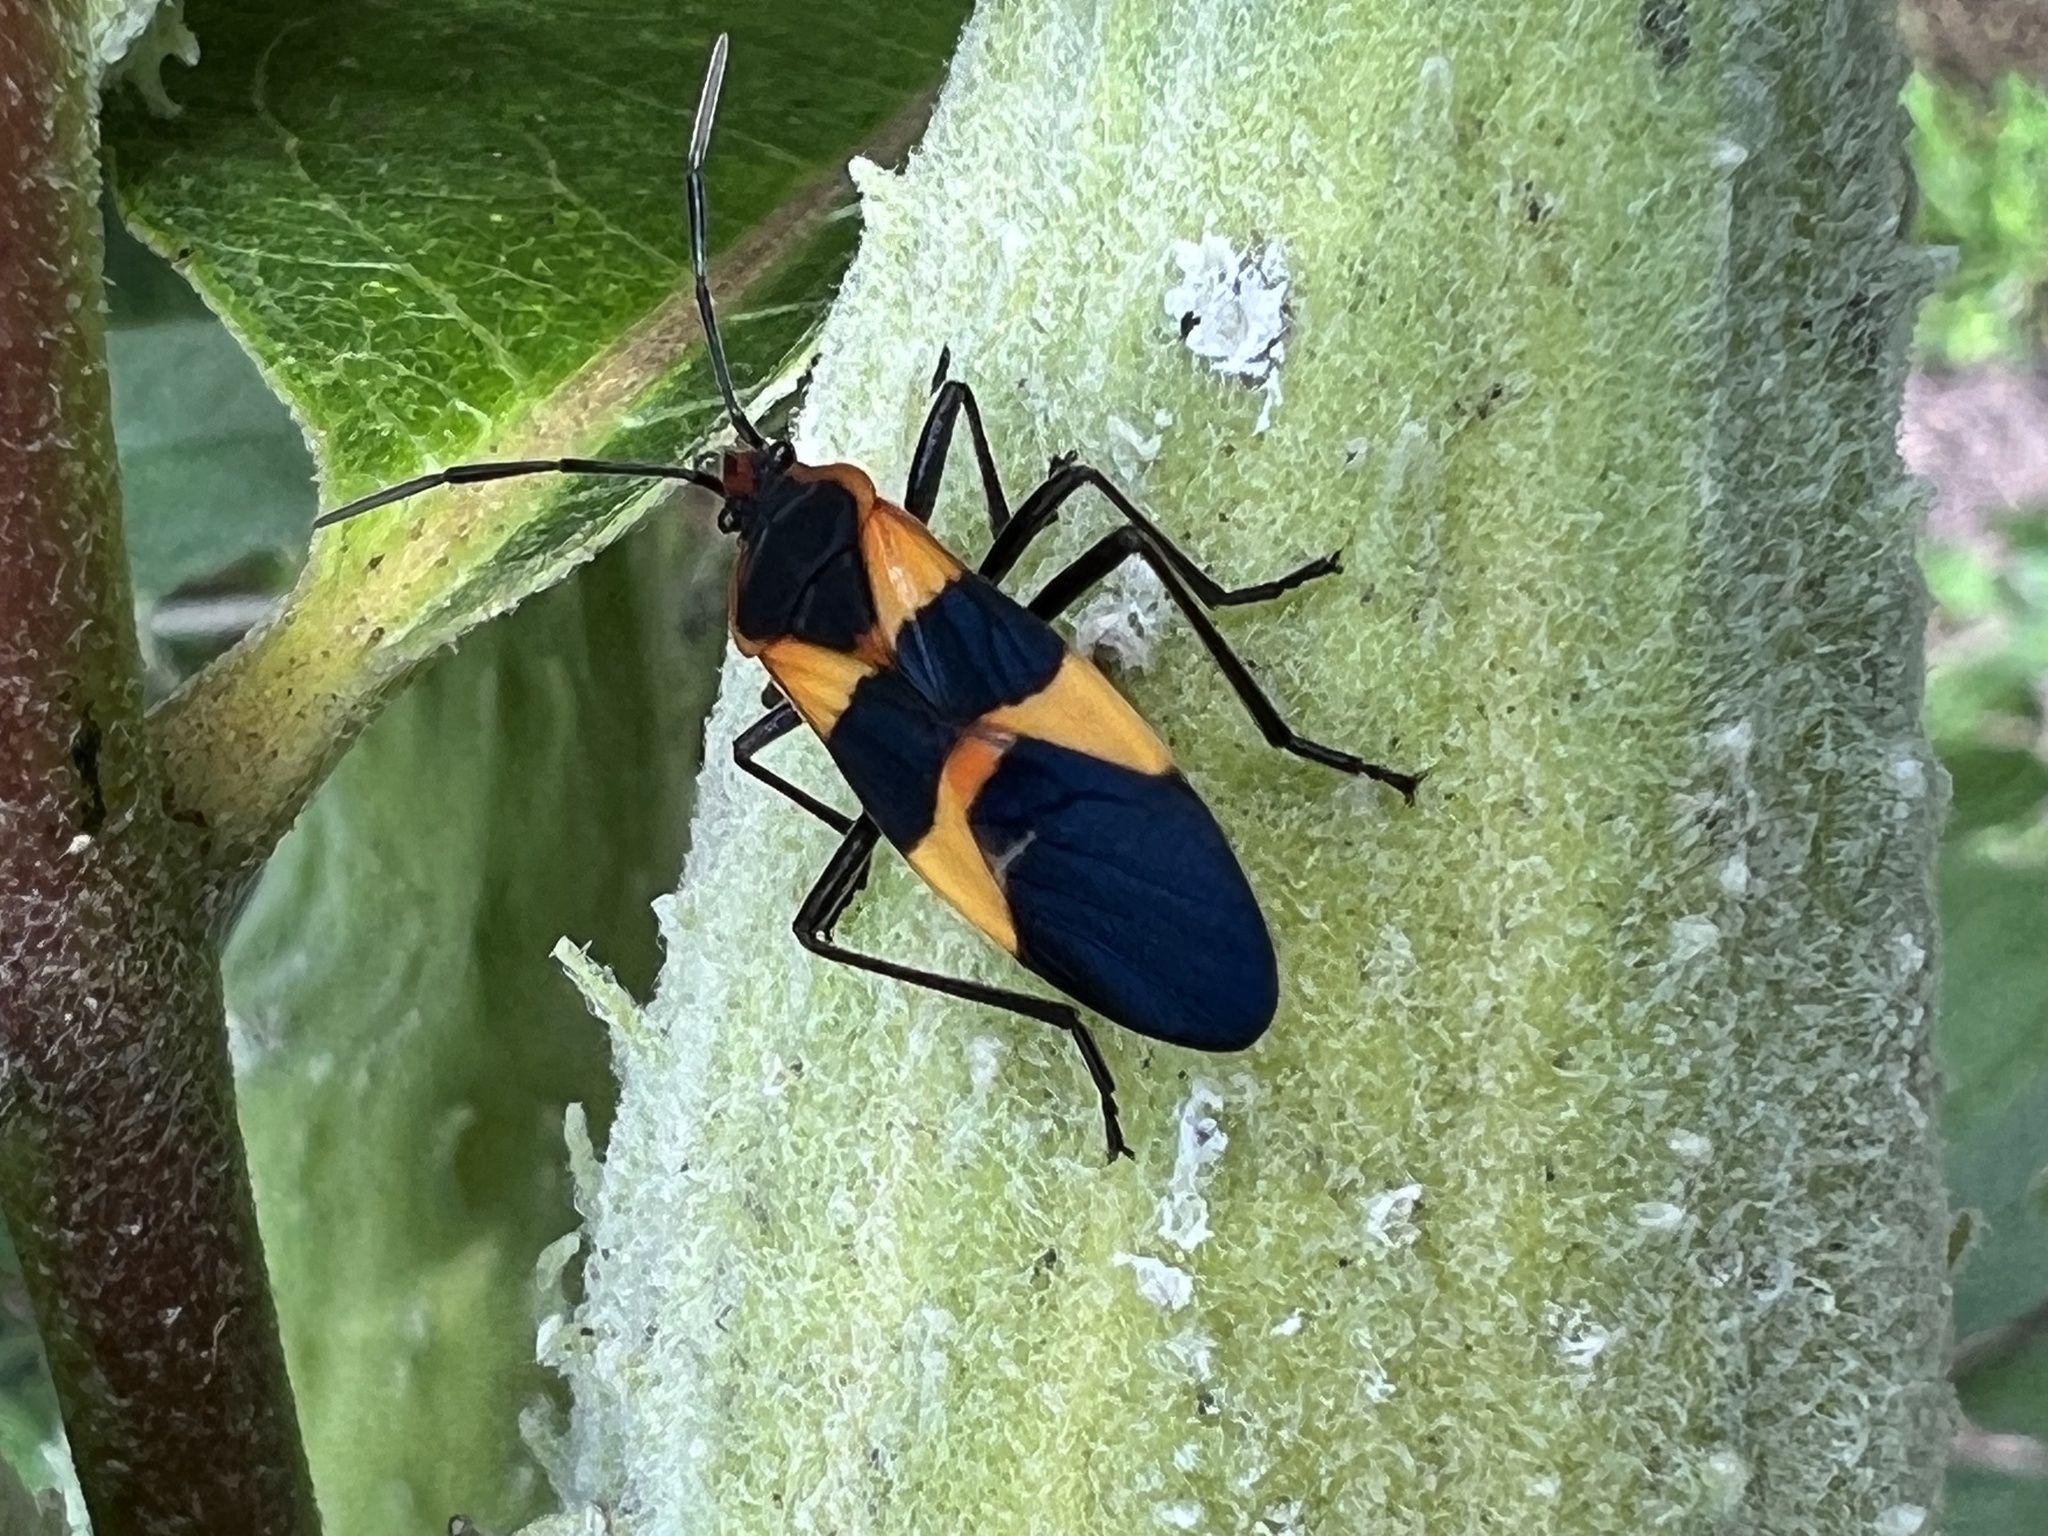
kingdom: Animalia
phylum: Arthropoda
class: Insecta
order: Hemiptera
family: Lygaeidae
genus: Oncopeltus
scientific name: Oncopeltus fasciatus
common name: Large milkweed bug
